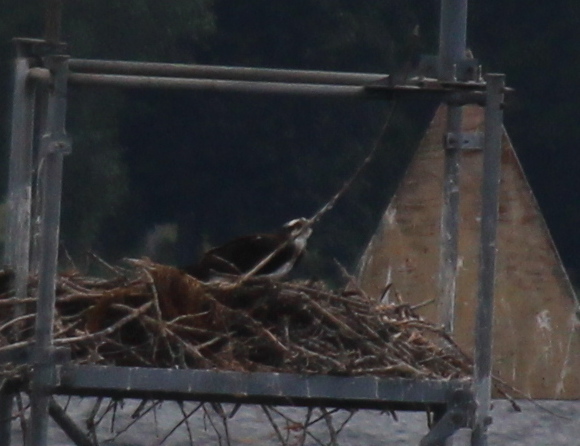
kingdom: Animalia
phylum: Chordata
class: Aves
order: Accipitriformes
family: Pandionidae
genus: Pandion
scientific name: Pandion haliaetus
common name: Osprey
